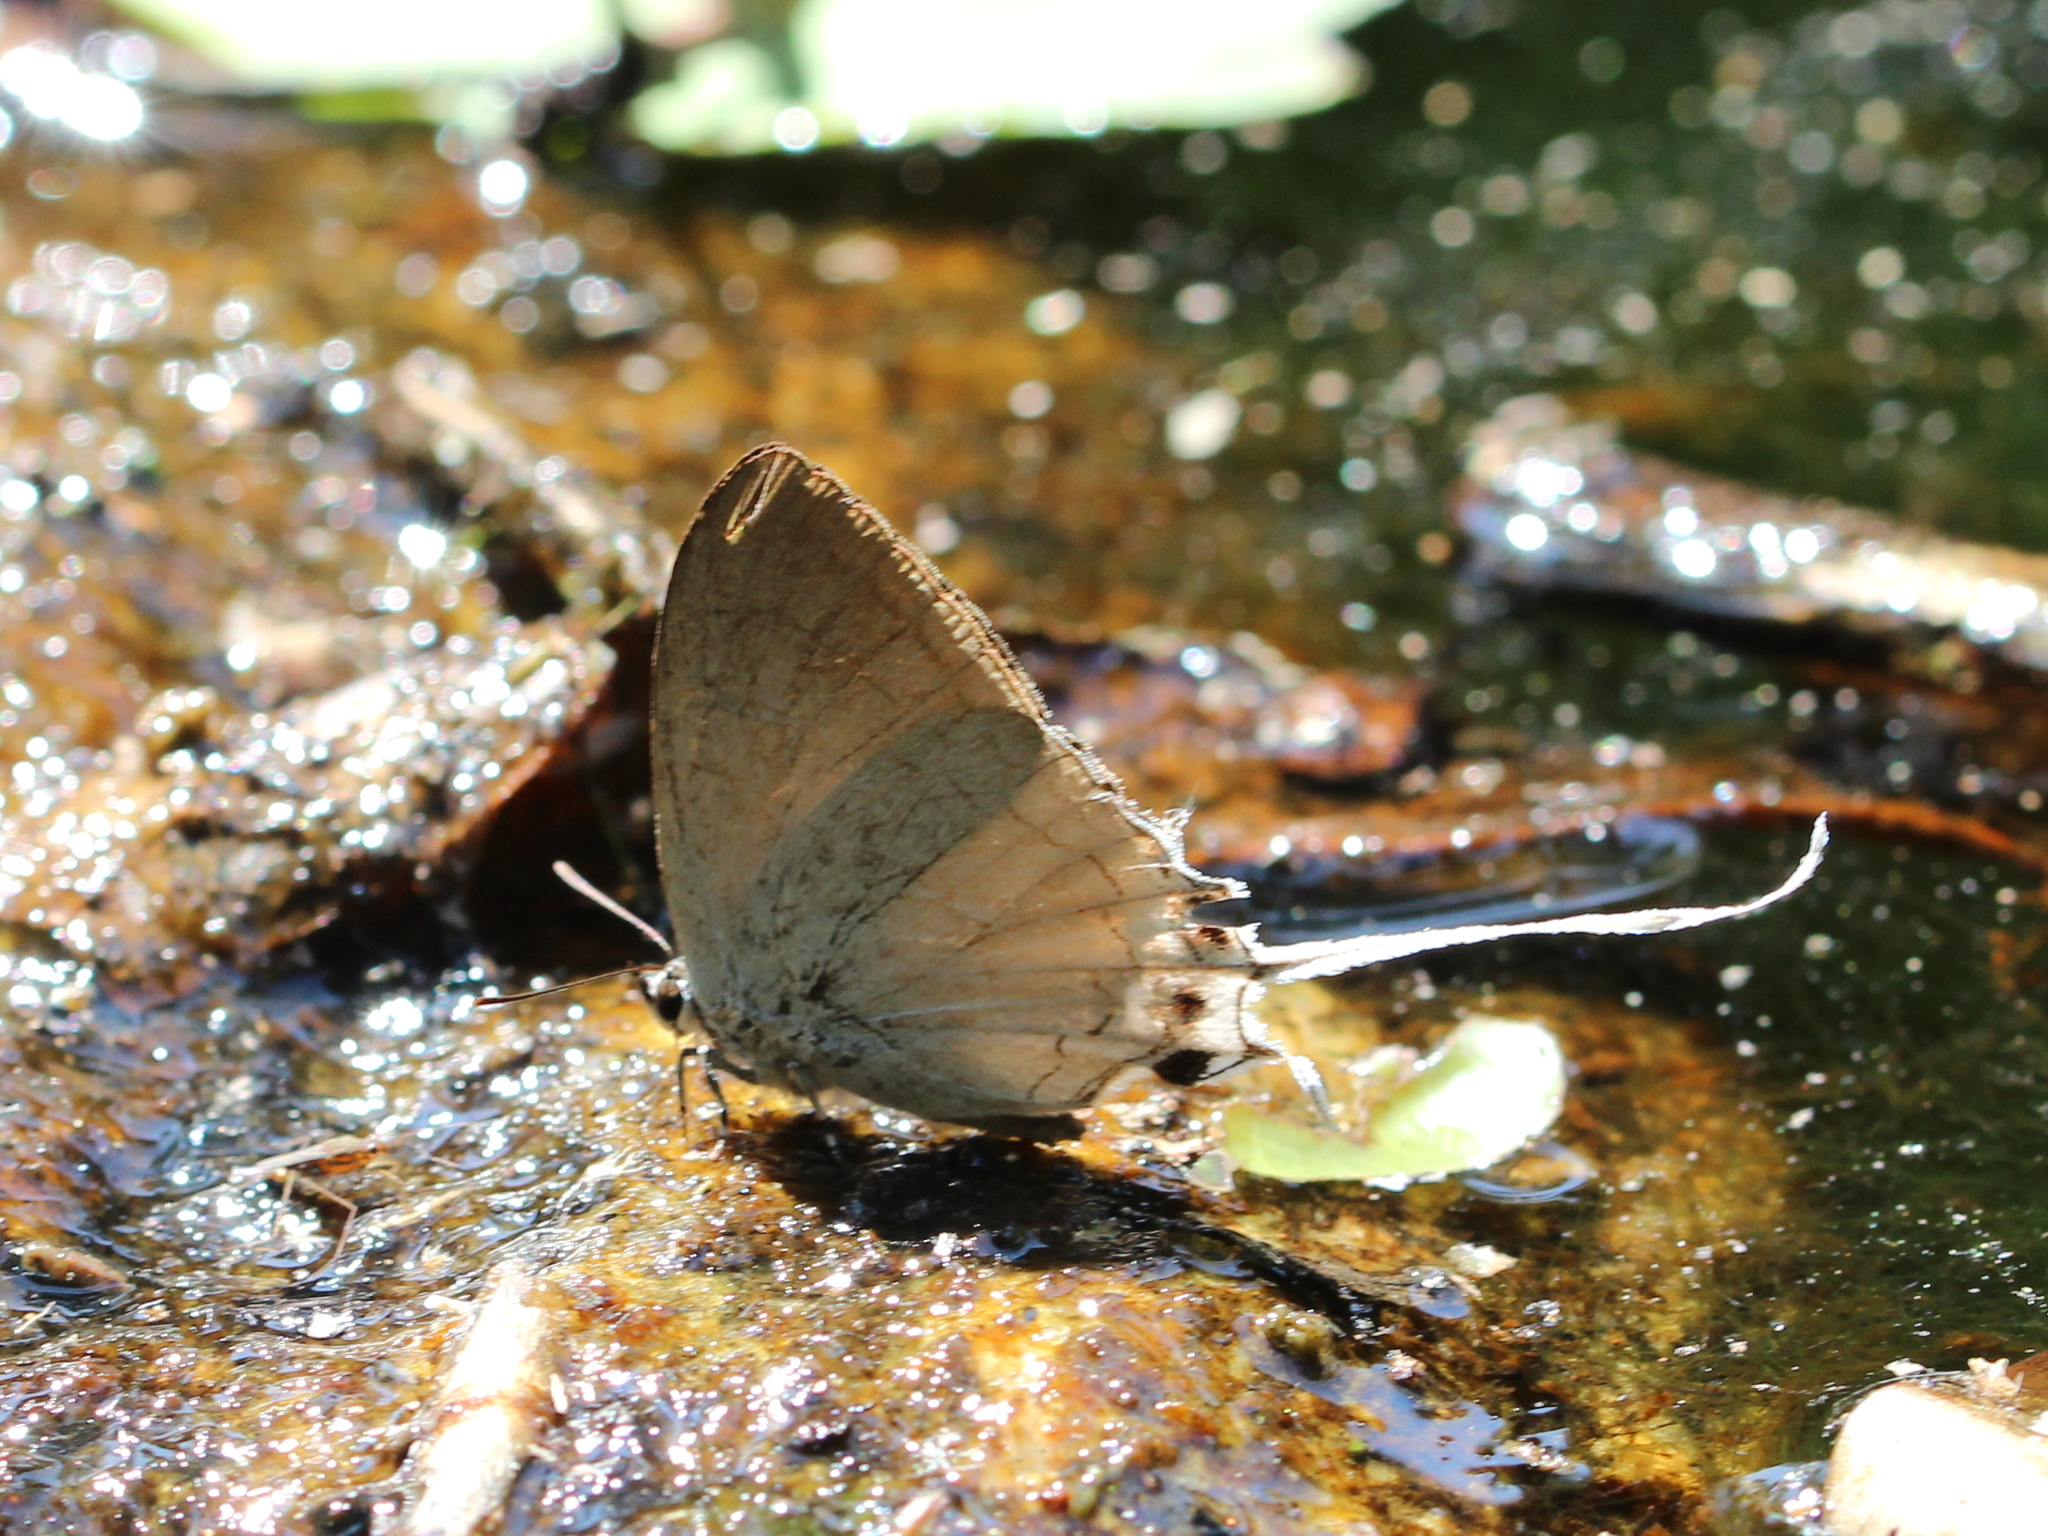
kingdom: Animalia
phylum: Arthropoda
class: Insecta
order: Lepidoptera
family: Lycaenidae
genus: Cheritra
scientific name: Cheritra freja
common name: Common imperial
